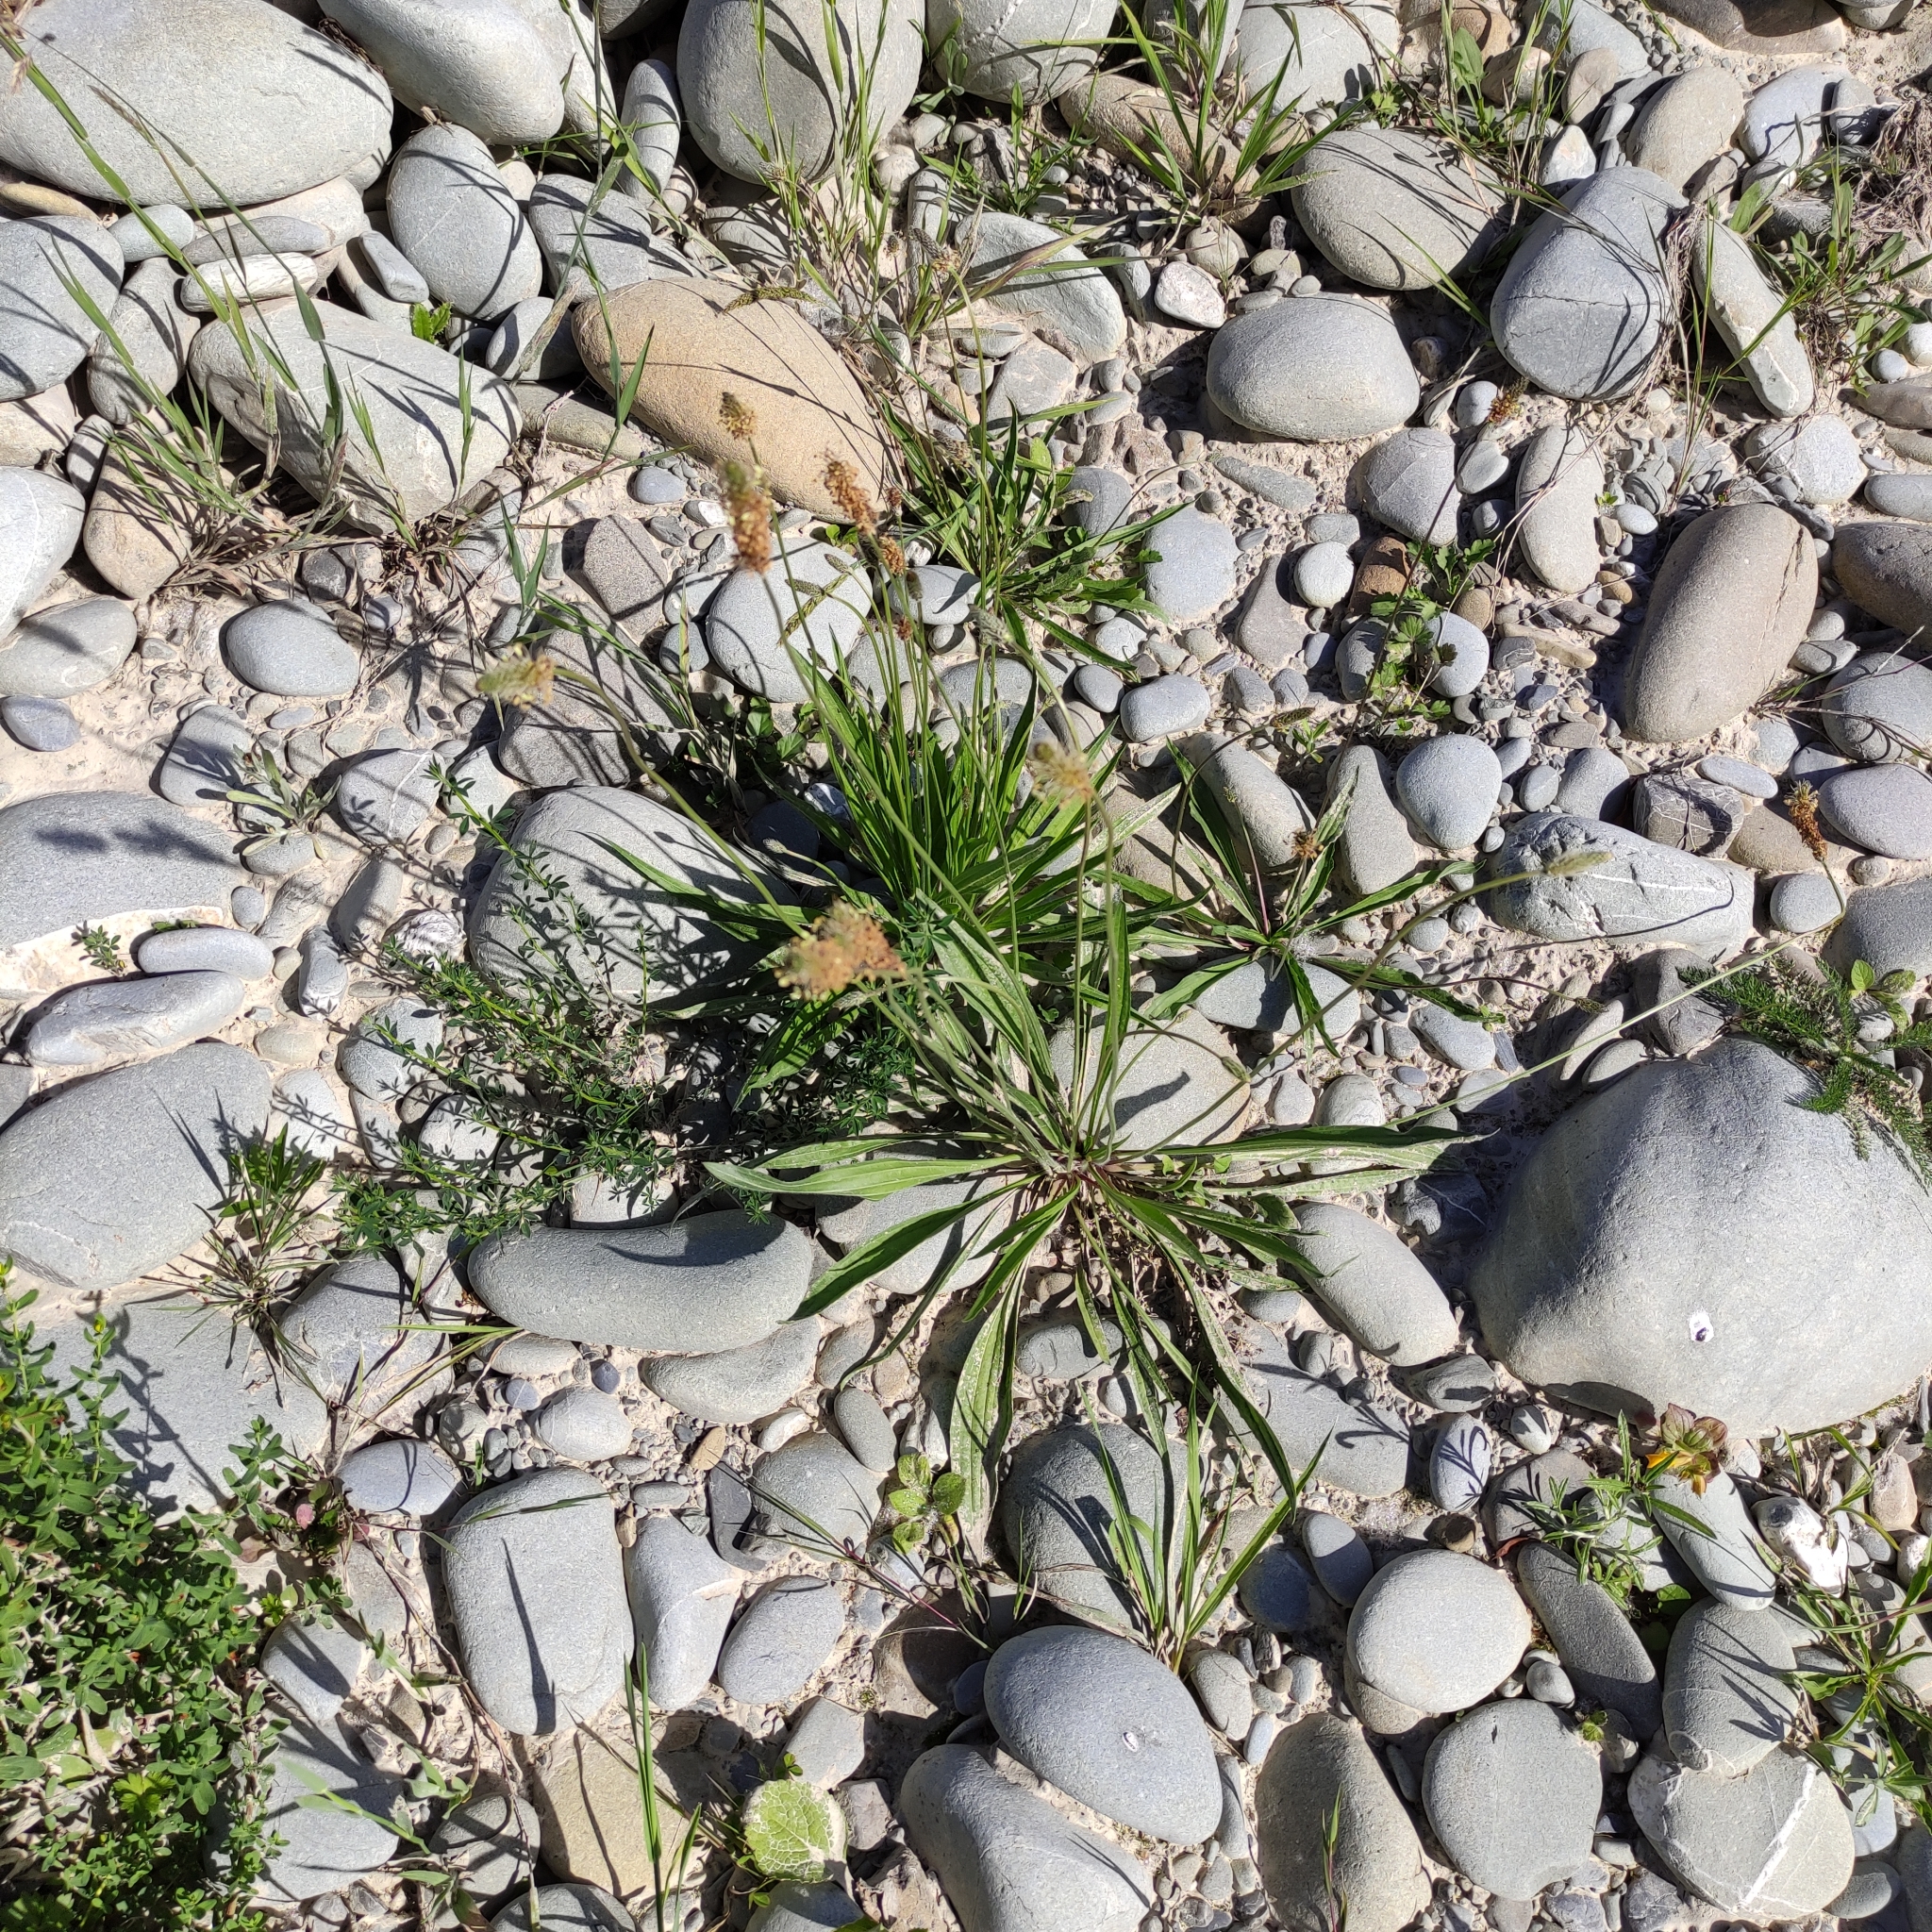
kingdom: Plantae
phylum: Tracheophyta
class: Magnoliopsida
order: Lamiales
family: Plantaginaceae
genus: Plantago
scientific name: Plantago lanceolata
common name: Ribwort plantain
